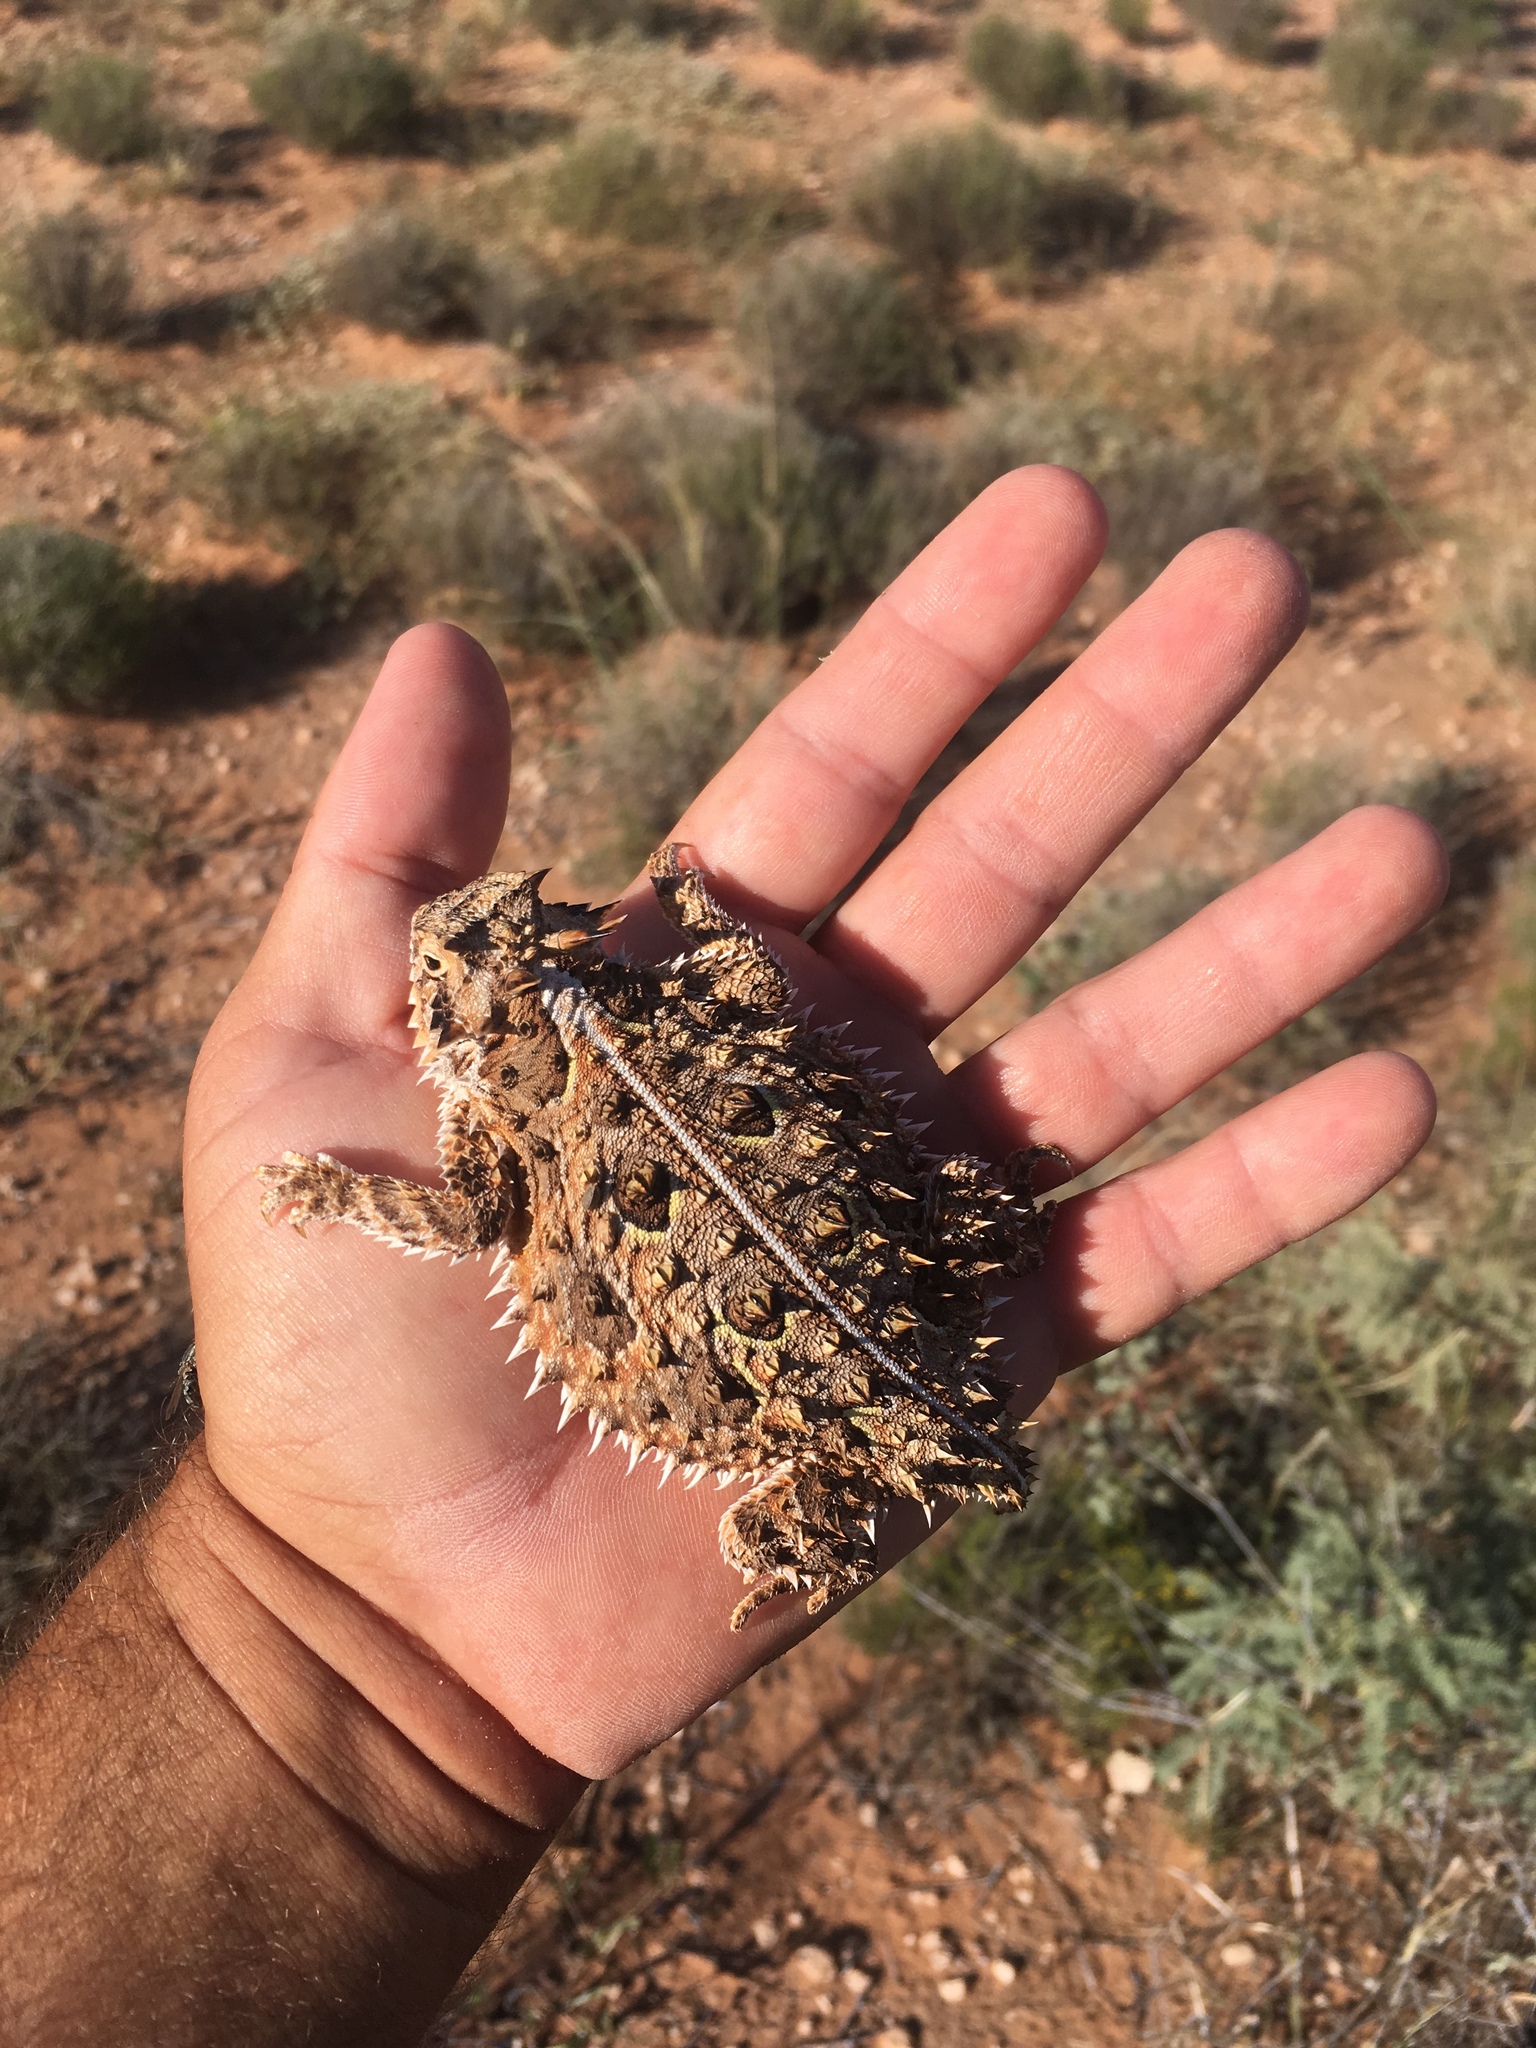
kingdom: Animalia
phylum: Chordata
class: Squamata
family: Phrynosomatidae
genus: Phrynosoma
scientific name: Phrynosoma cornutum
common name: Texas horned lizard
